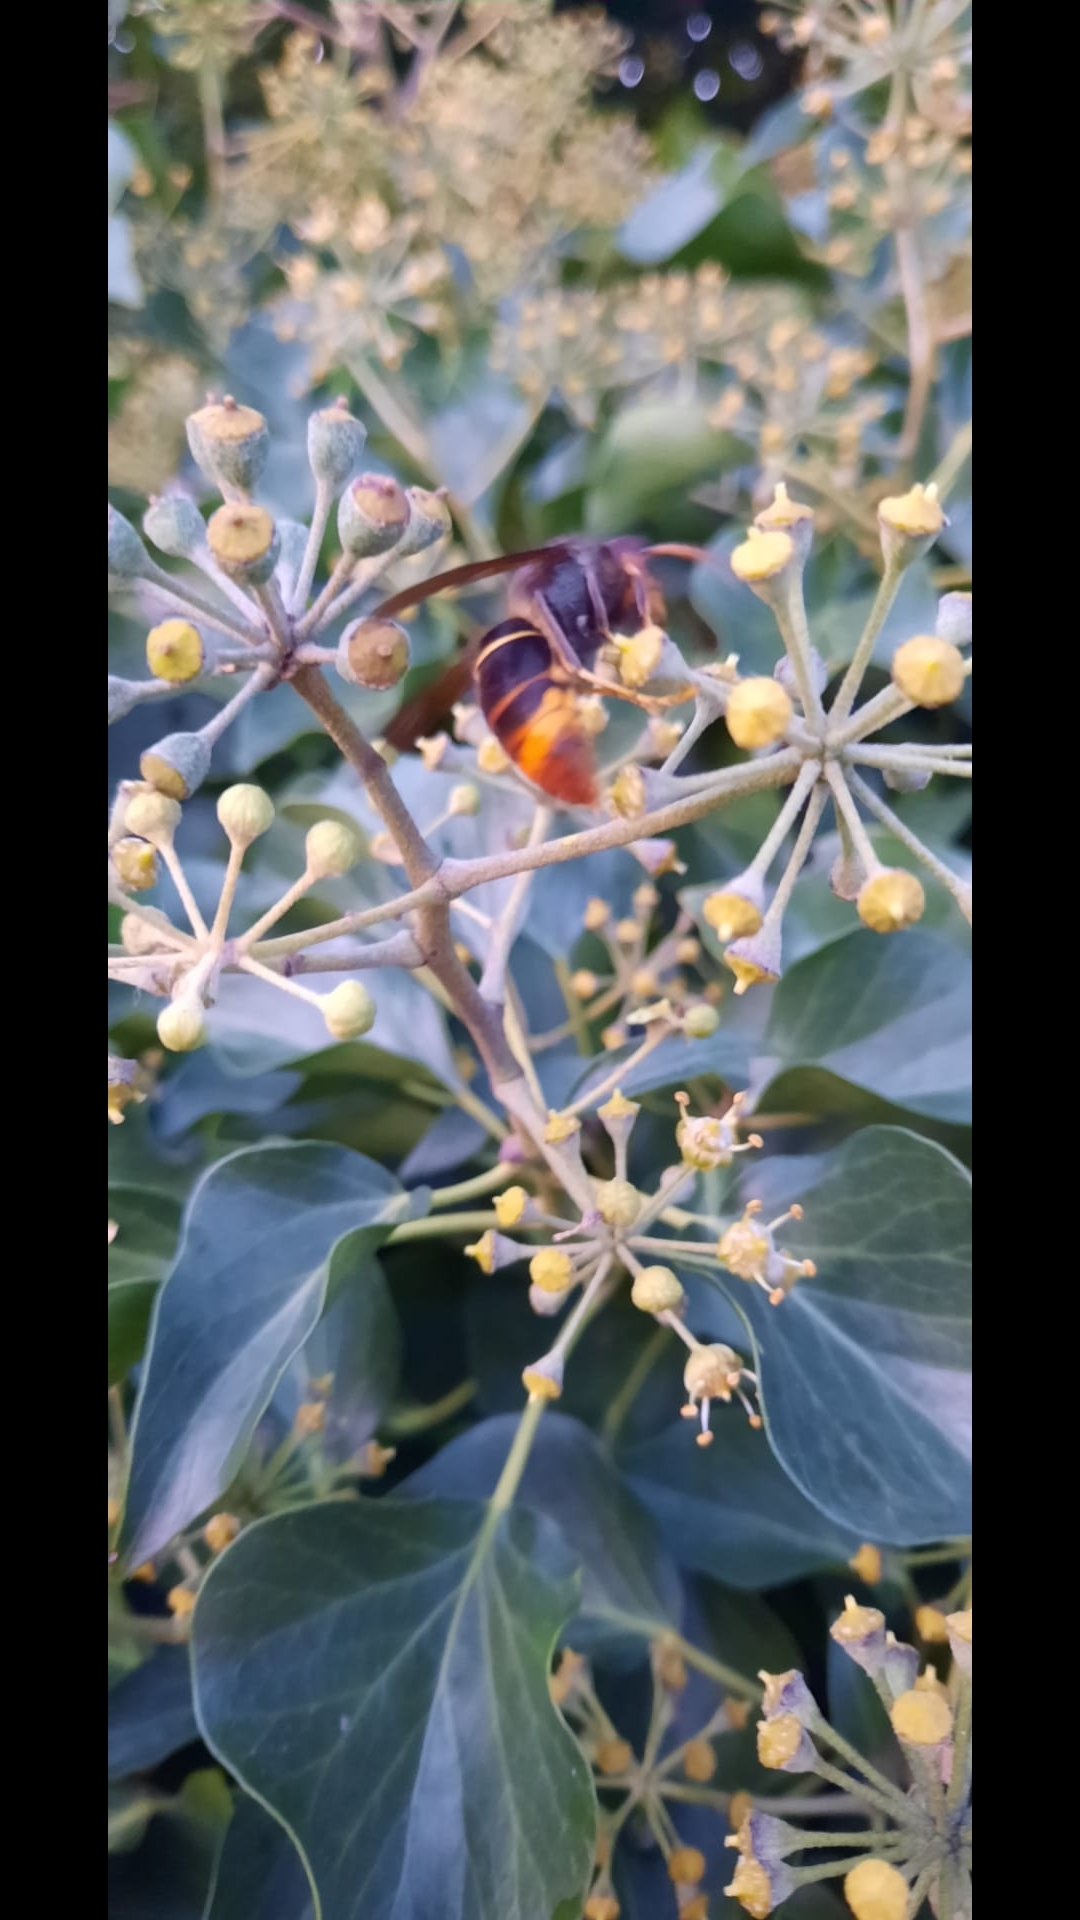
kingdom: Animalia
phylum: Arthropoda
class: Insecta
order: Hymenoptera
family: Vespidae
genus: Vespa
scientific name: Vespa velutina
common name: Asian hornet
